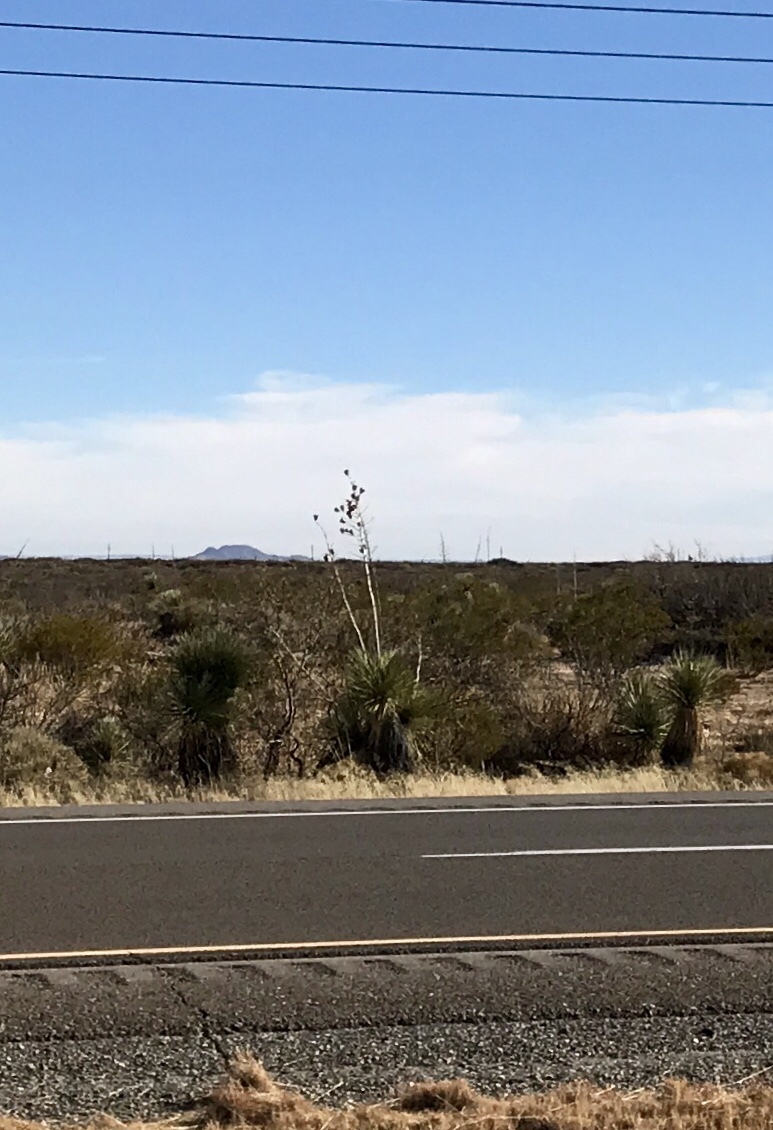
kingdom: Plantae
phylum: Tracheophyta
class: Liliopsida
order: Asparagales
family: Asparagaceae
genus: Yucca
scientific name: Yucca elata
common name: Palmella
